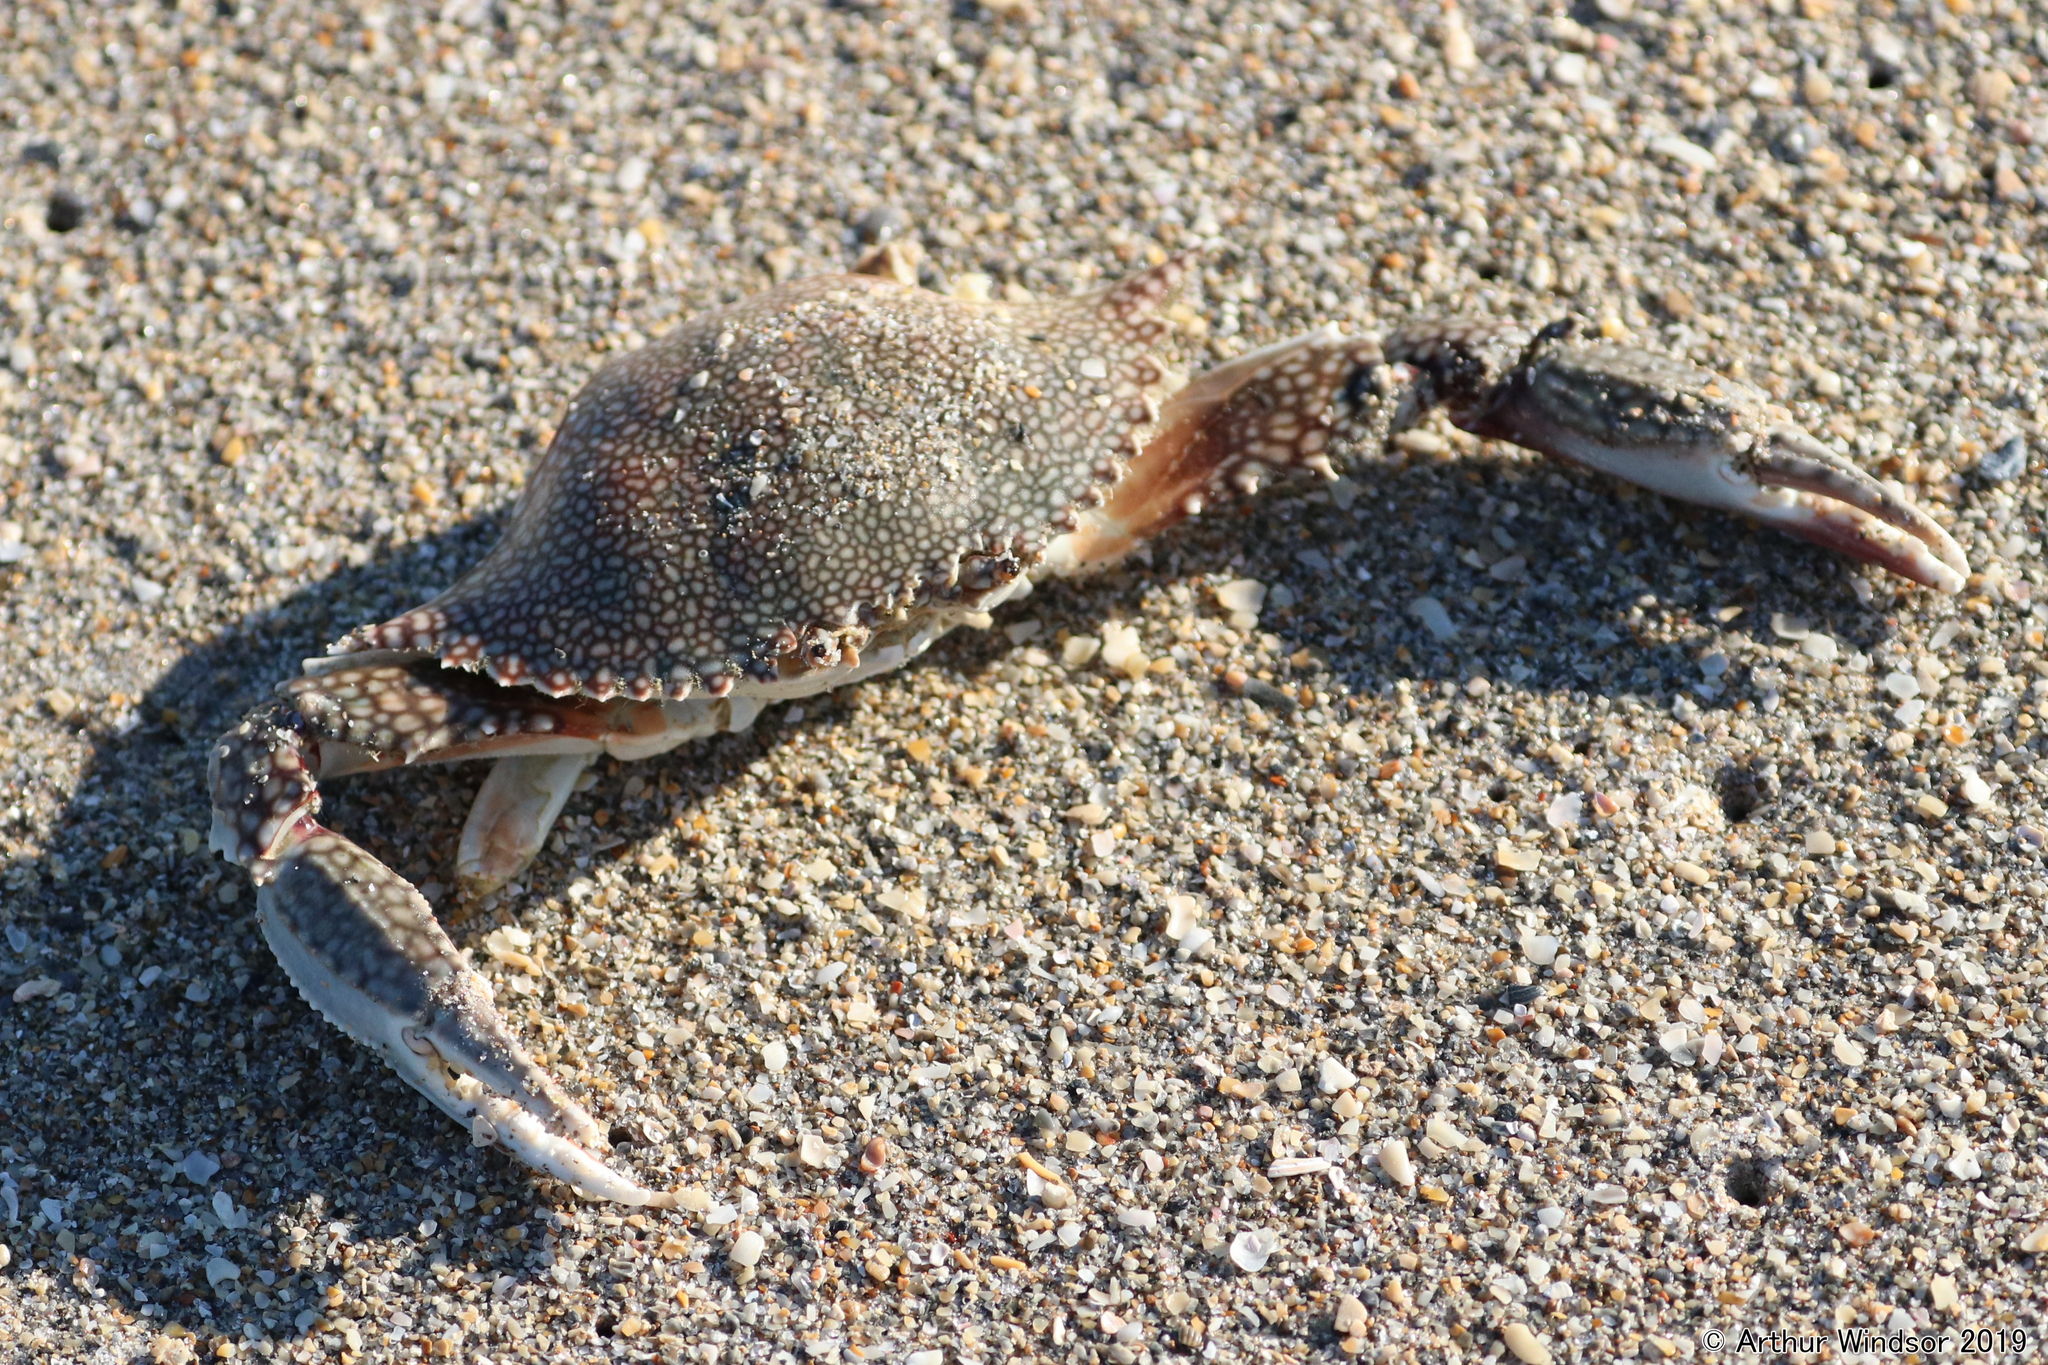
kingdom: Animalia
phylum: Arthropoda
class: Malacostraca
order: Decapoda
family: Portunidae
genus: Arenaeus
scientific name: Arenaeus cribrarius
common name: Speckled crab
